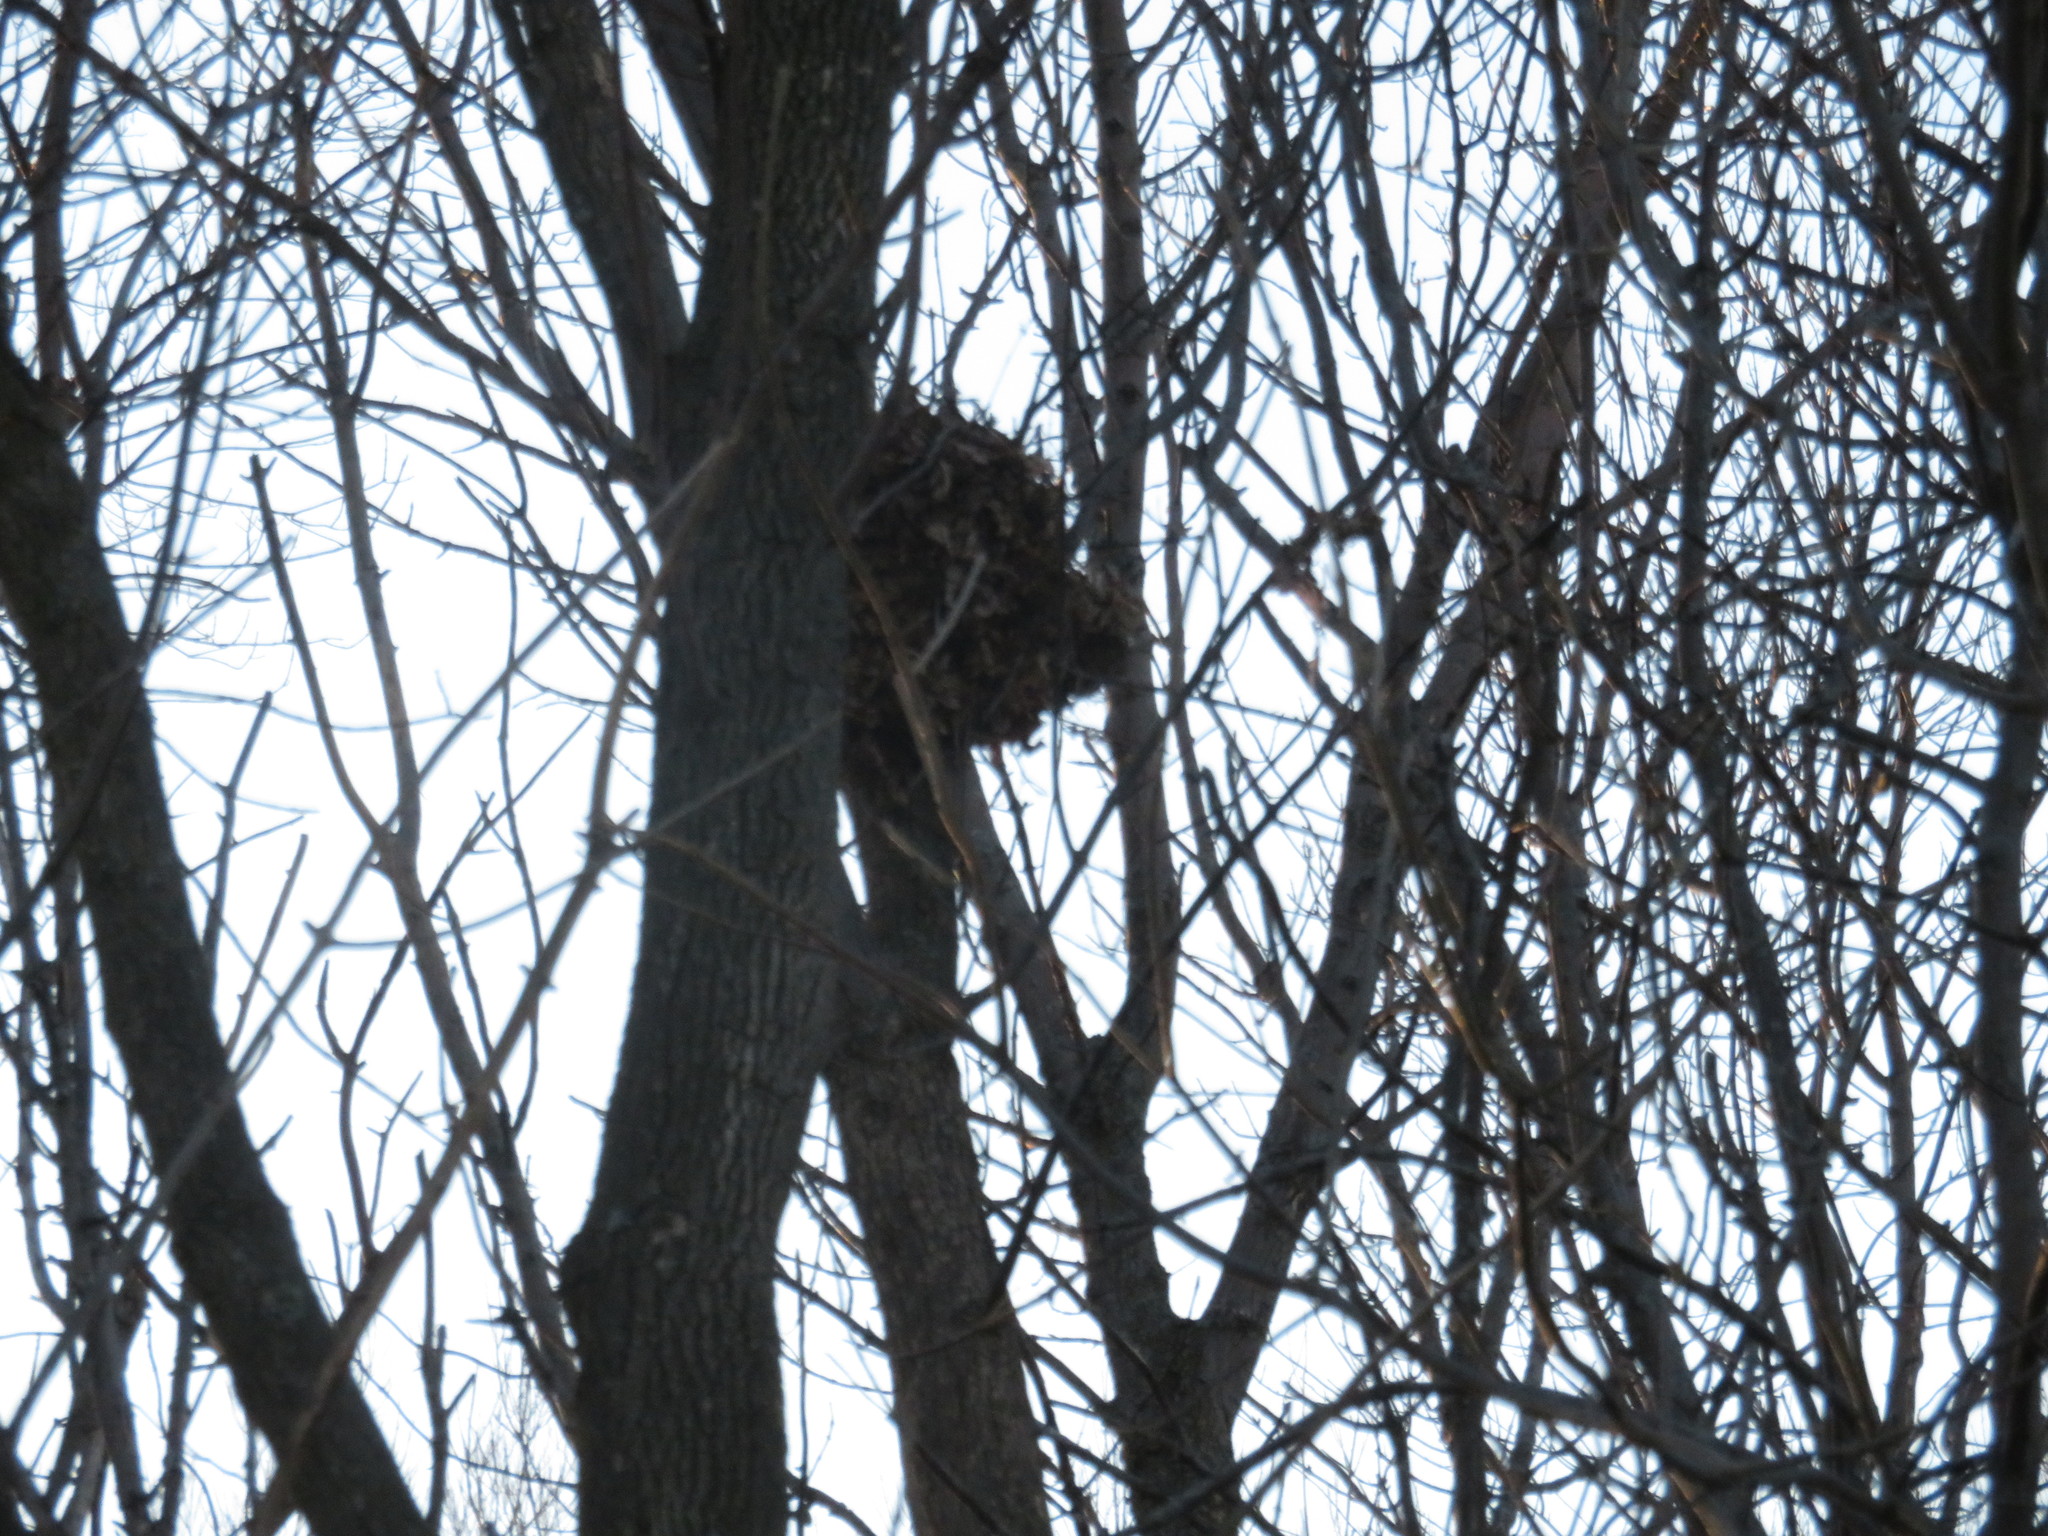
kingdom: Animalia
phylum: Chordata
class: Mammalia
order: Rodentia
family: Sciuridae
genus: Sciurus
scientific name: Sciurus carolinensis
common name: Eastern gray squirrel
